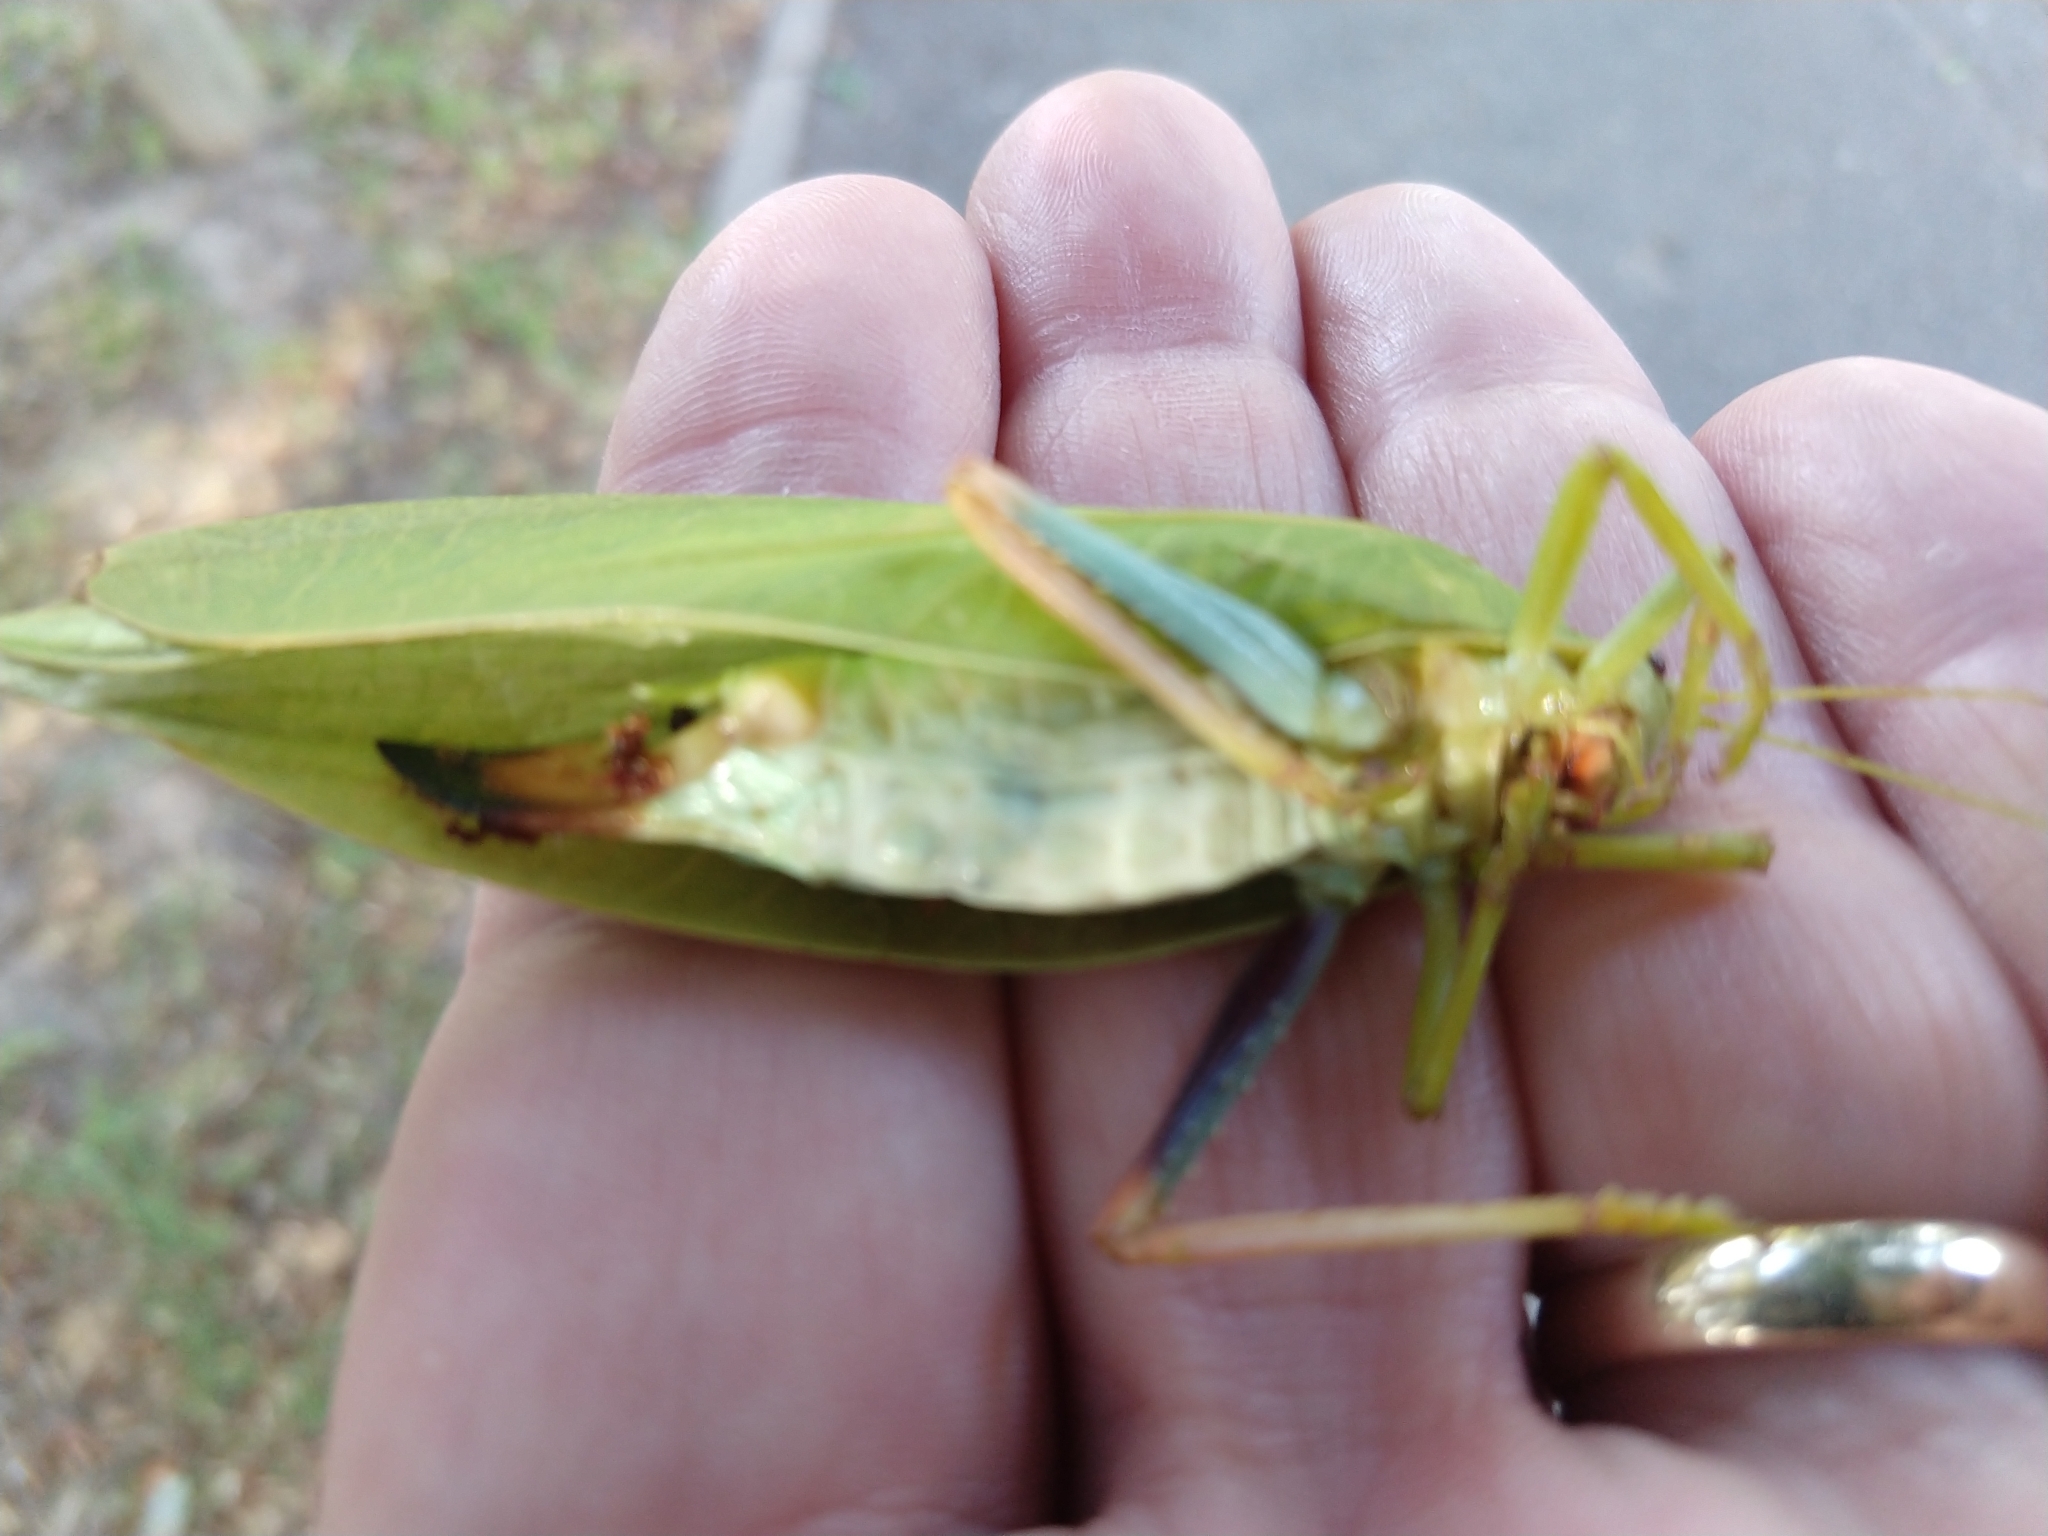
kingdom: Animalia
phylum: Arthropoda
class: Insecta
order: Orthoptera
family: Tettigoniidae
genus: Zabalius
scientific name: Zabalius ophthalmicus
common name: Blue-legged sylvan katydid
